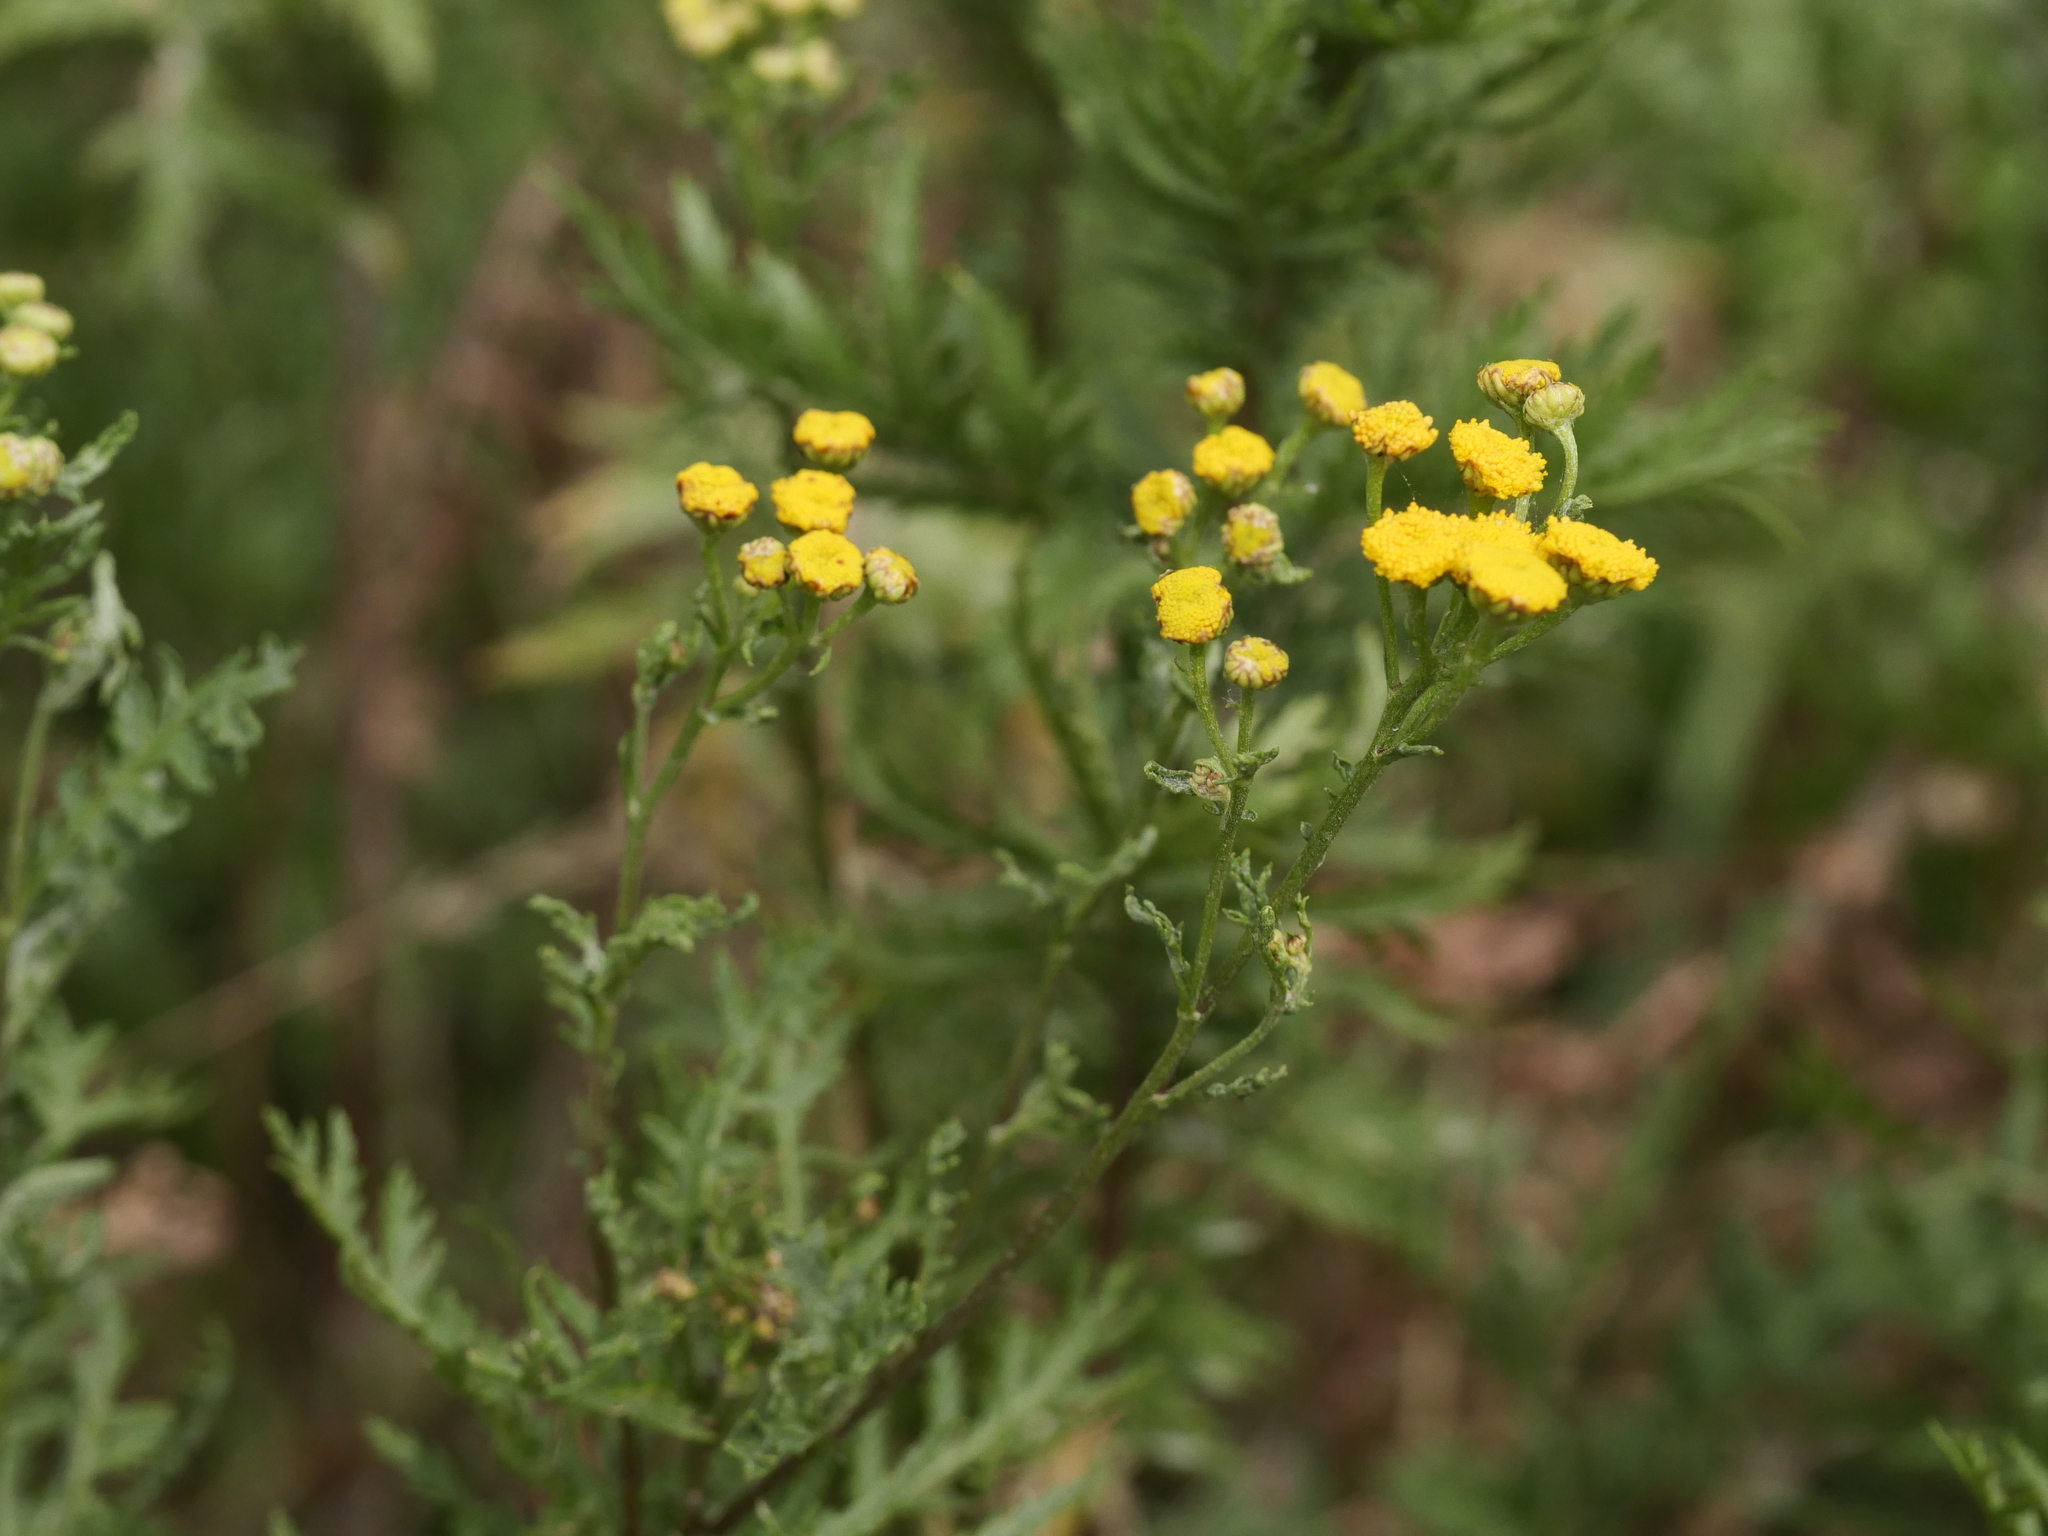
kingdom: Plantae
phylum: Tracheophyta
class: Magnoliopsida
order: Asterales
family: Asteraceae
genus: Tanacetum
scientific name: Tanacetum vulgare
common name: Common tansy
